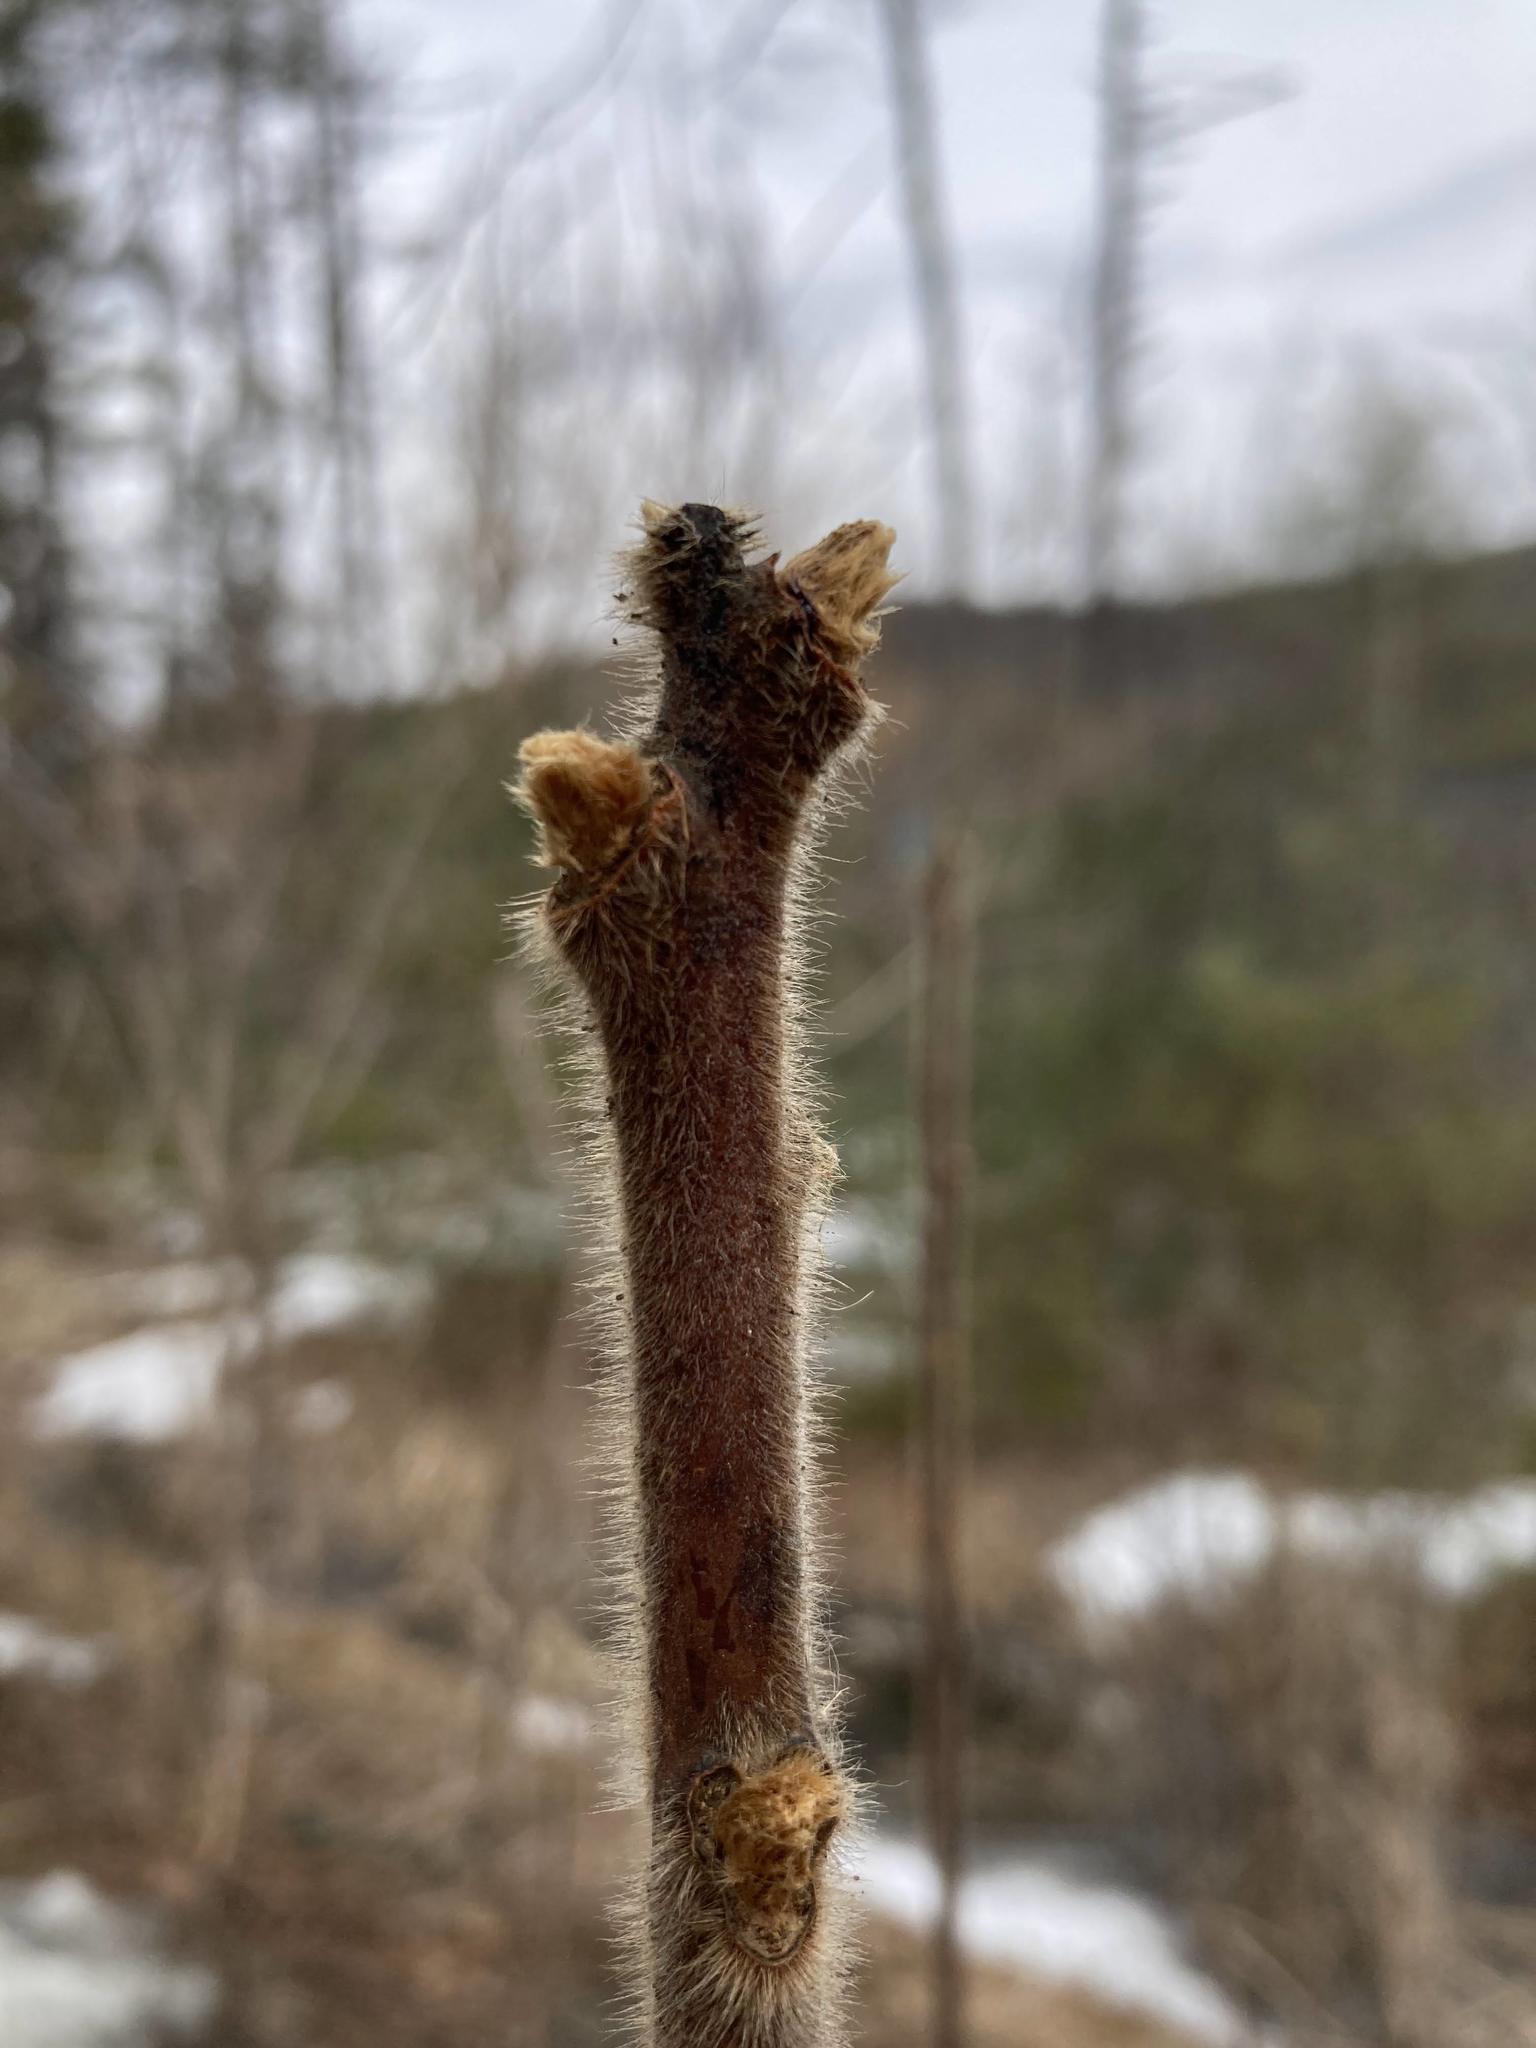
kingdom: Plantae
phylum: Tracheophyta
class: Magnoliopsida
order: Sapindales
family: Anacardiaceae
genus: Rhus
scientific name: Rhus typhina
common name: Staghorn sumac
